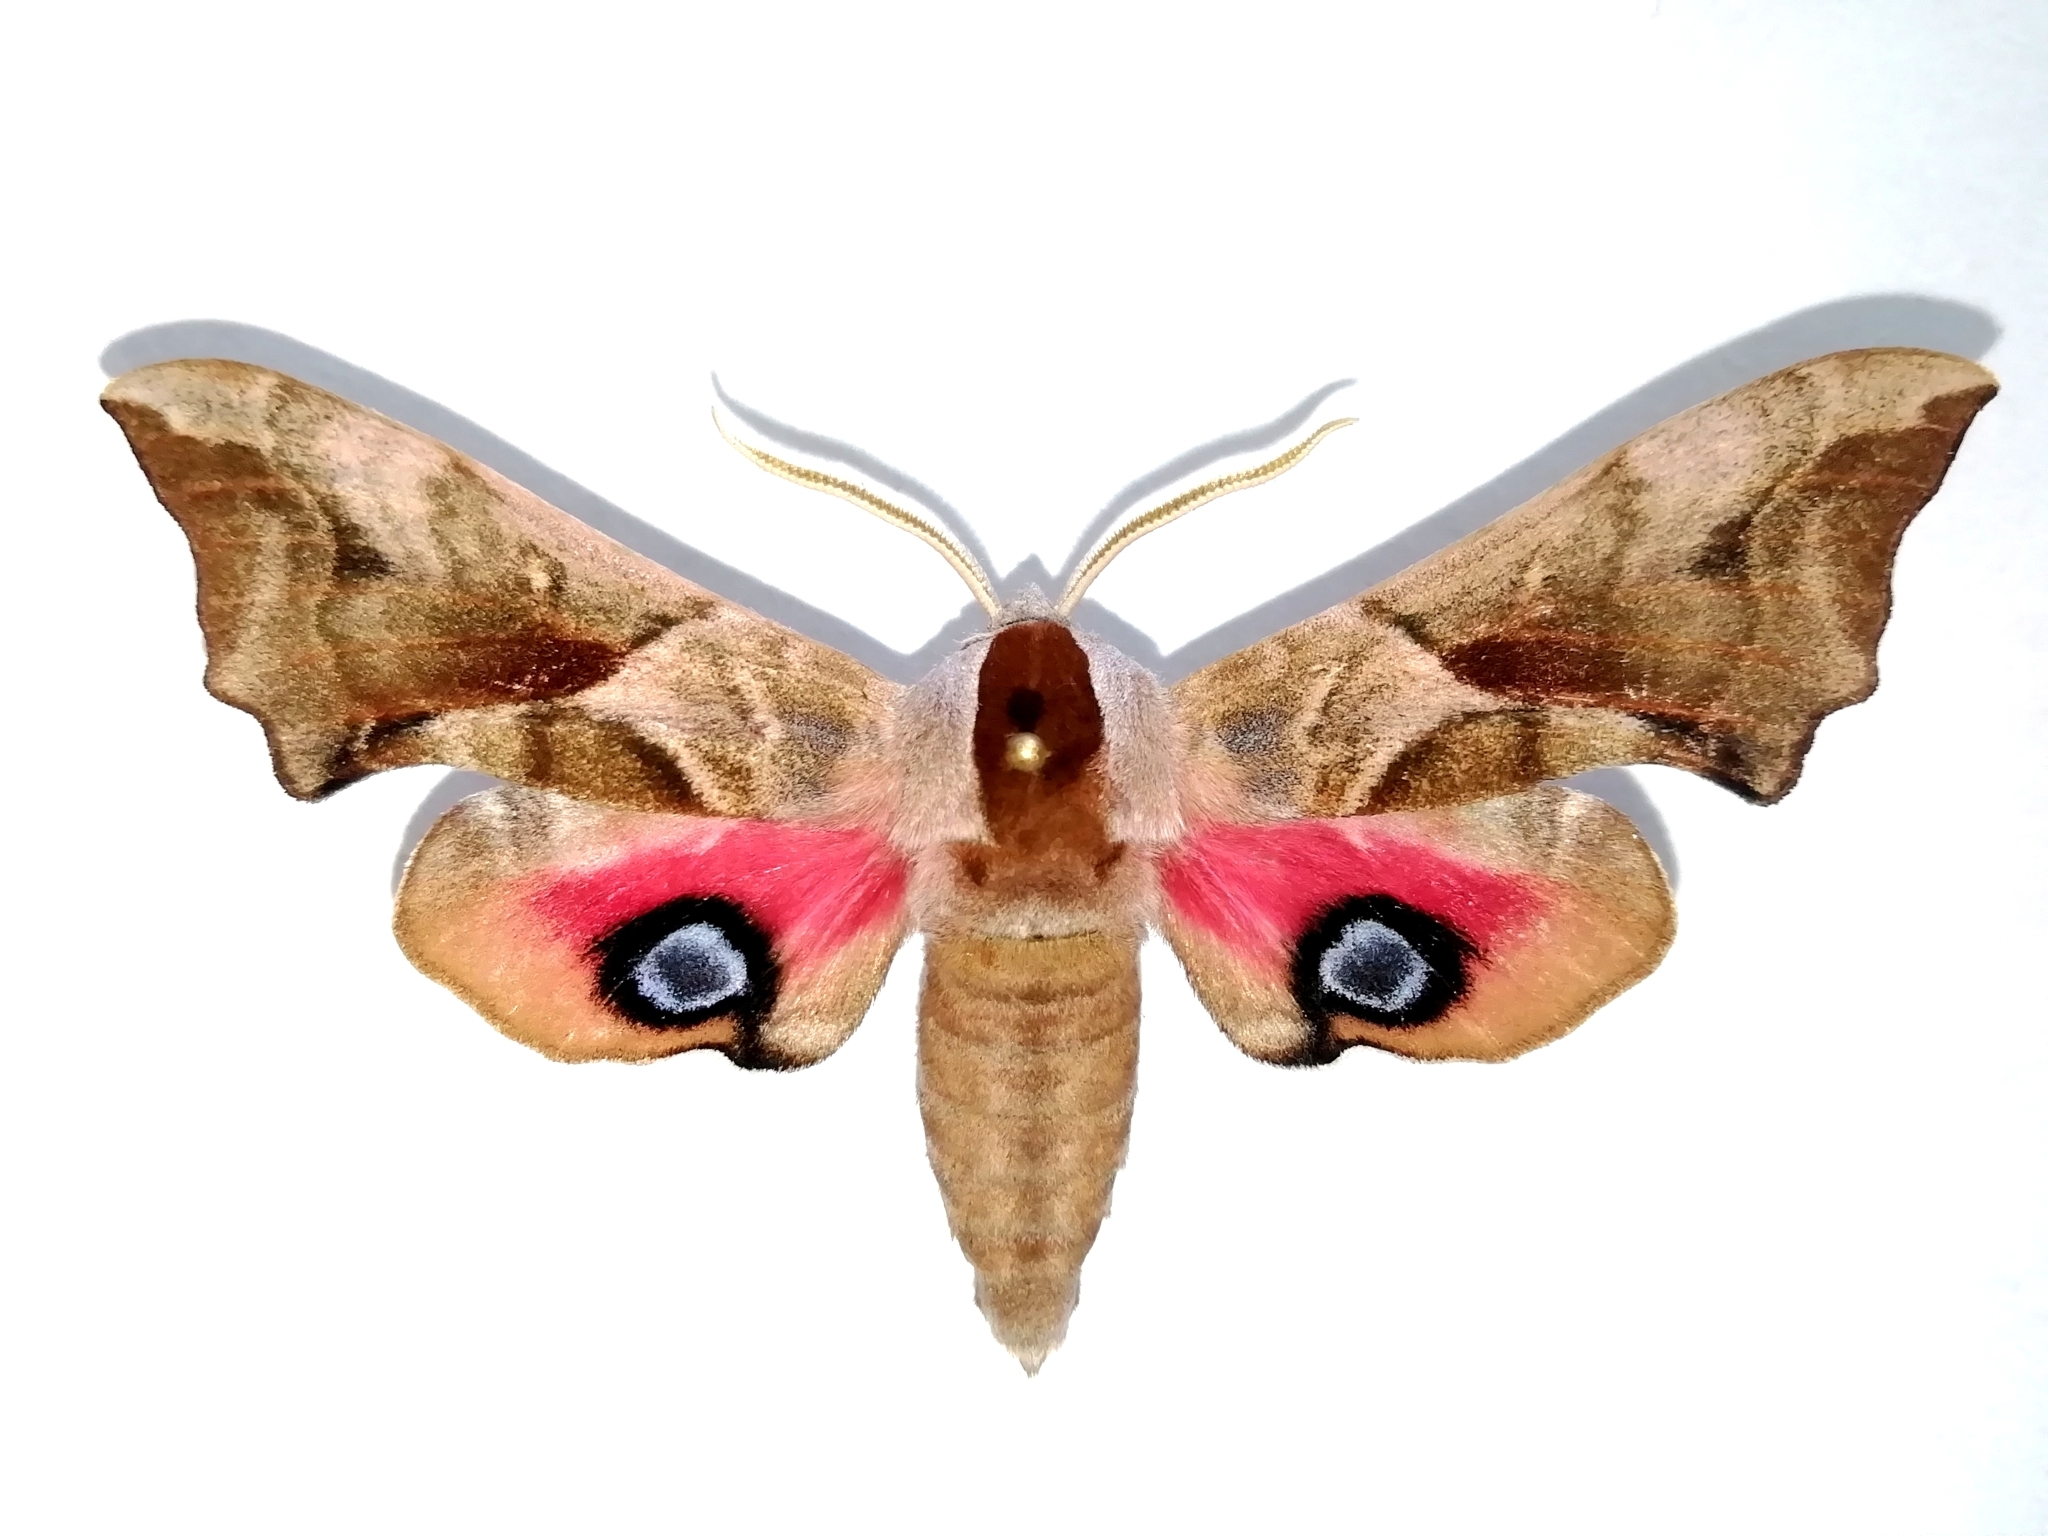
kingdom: Animalia
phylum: Arthropoda
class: Insecta
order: Lepidoptera
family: Sphingidae
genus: Smerinthus
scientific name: Smerinthus ocellata
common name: Eyed hawk-moth
